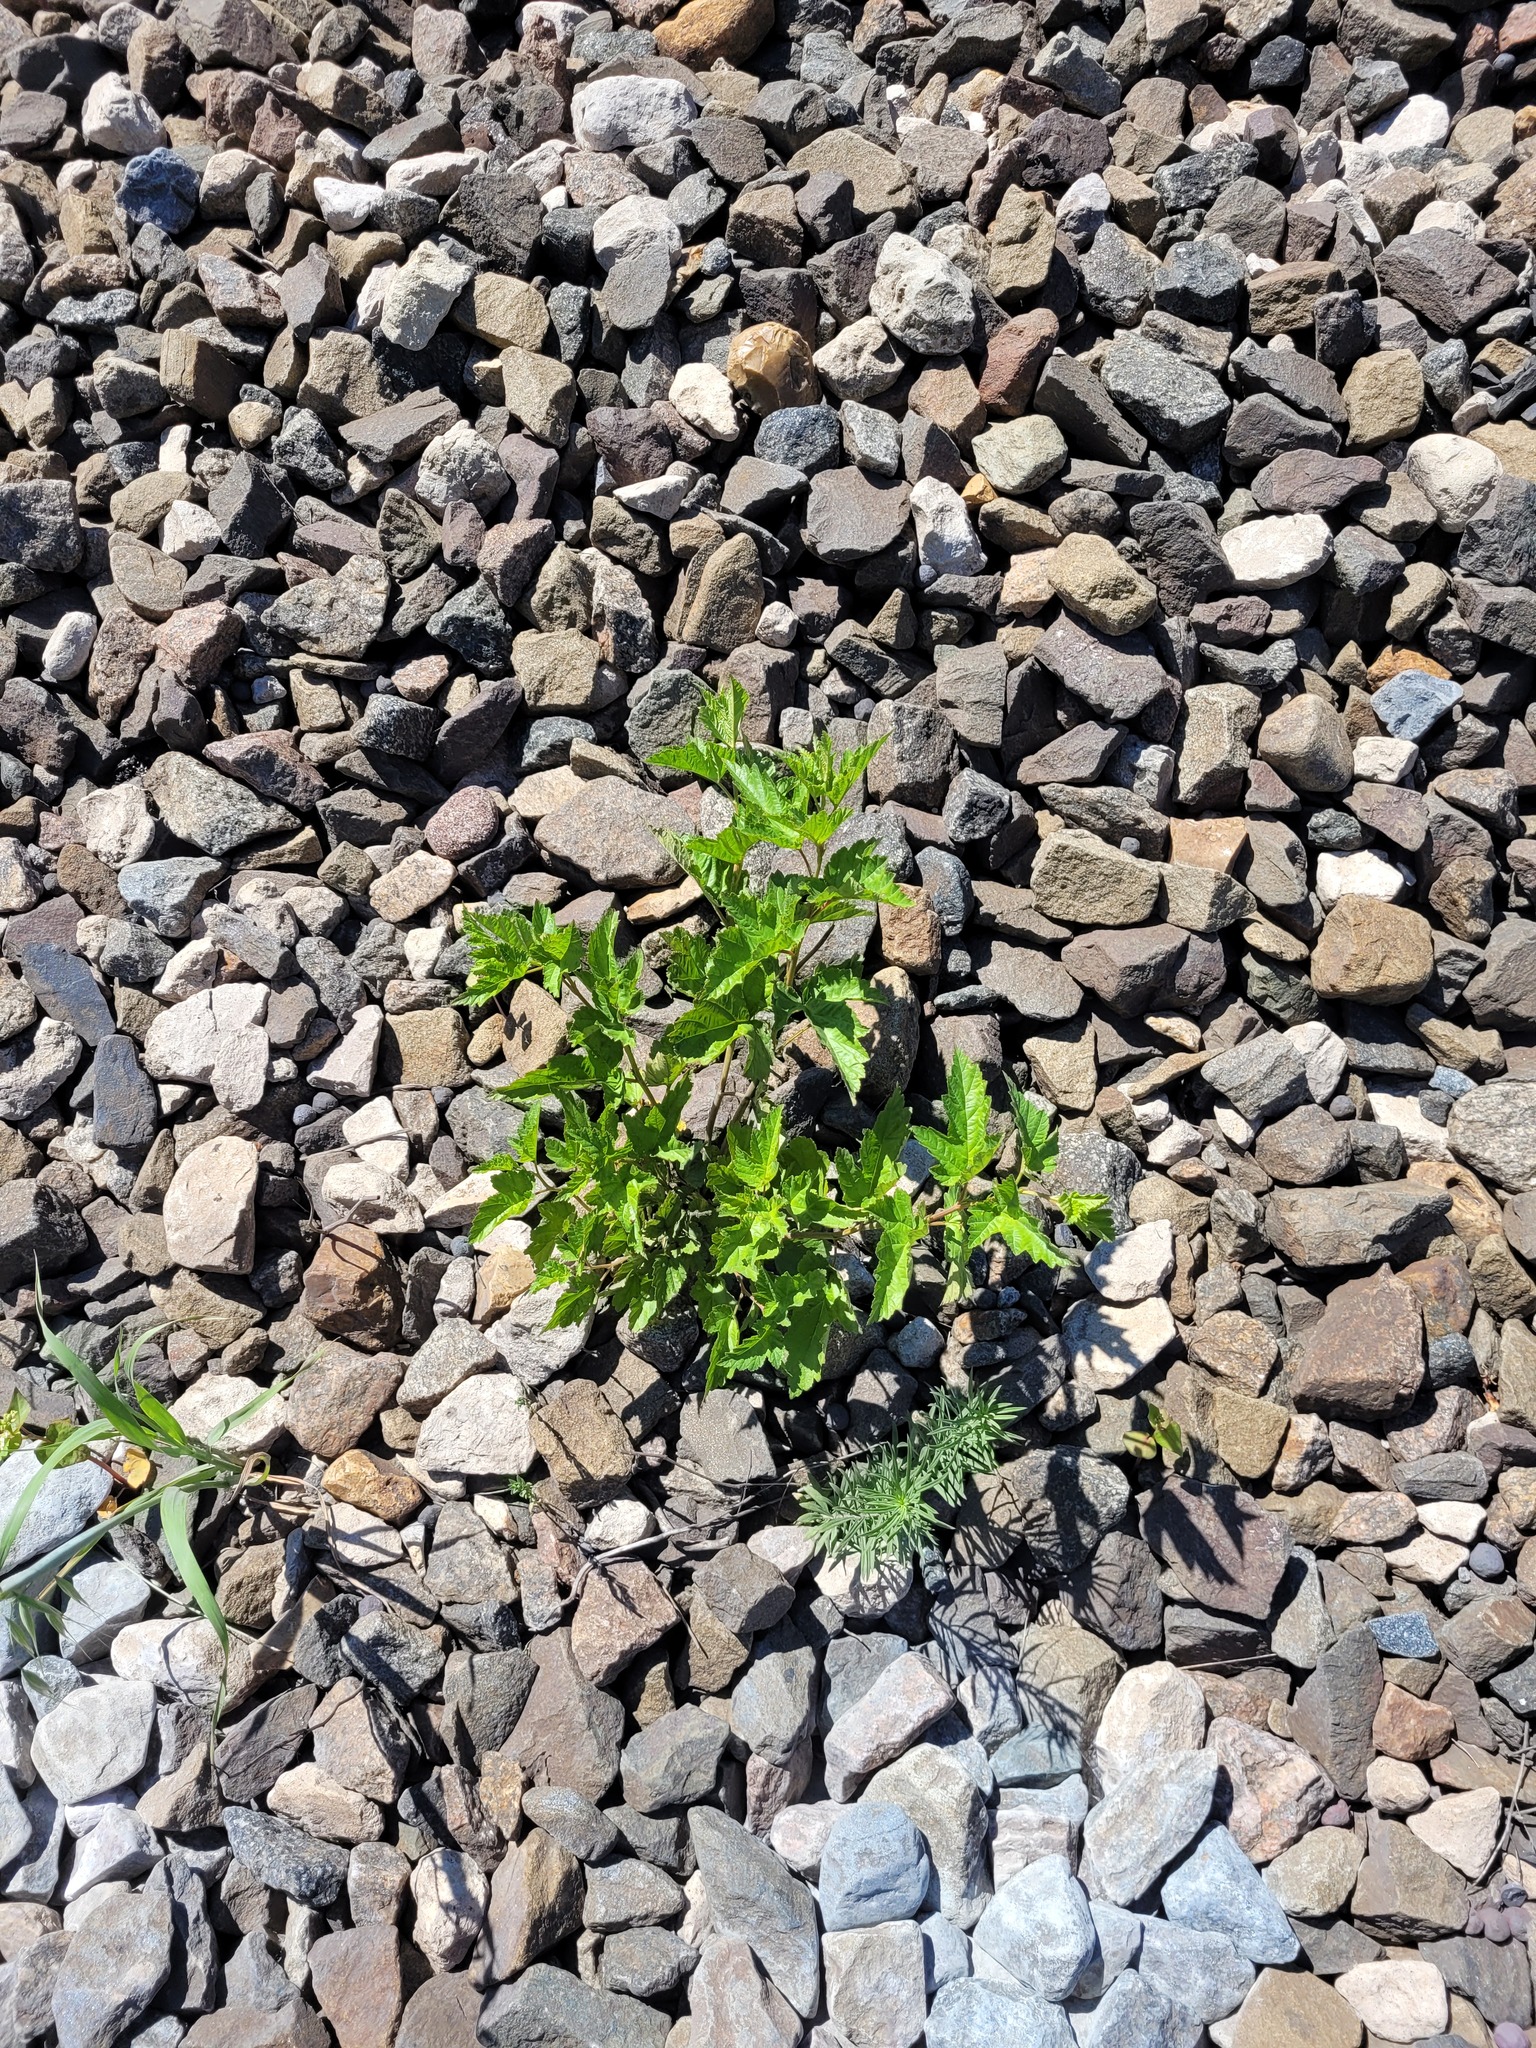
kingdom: Plantae
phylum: Tracheophyta
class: Magnoliopsida
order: Rosales
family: Rosaceae
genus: Physocarpus
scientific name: Physocarpus opulifolius
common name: Ninebark
